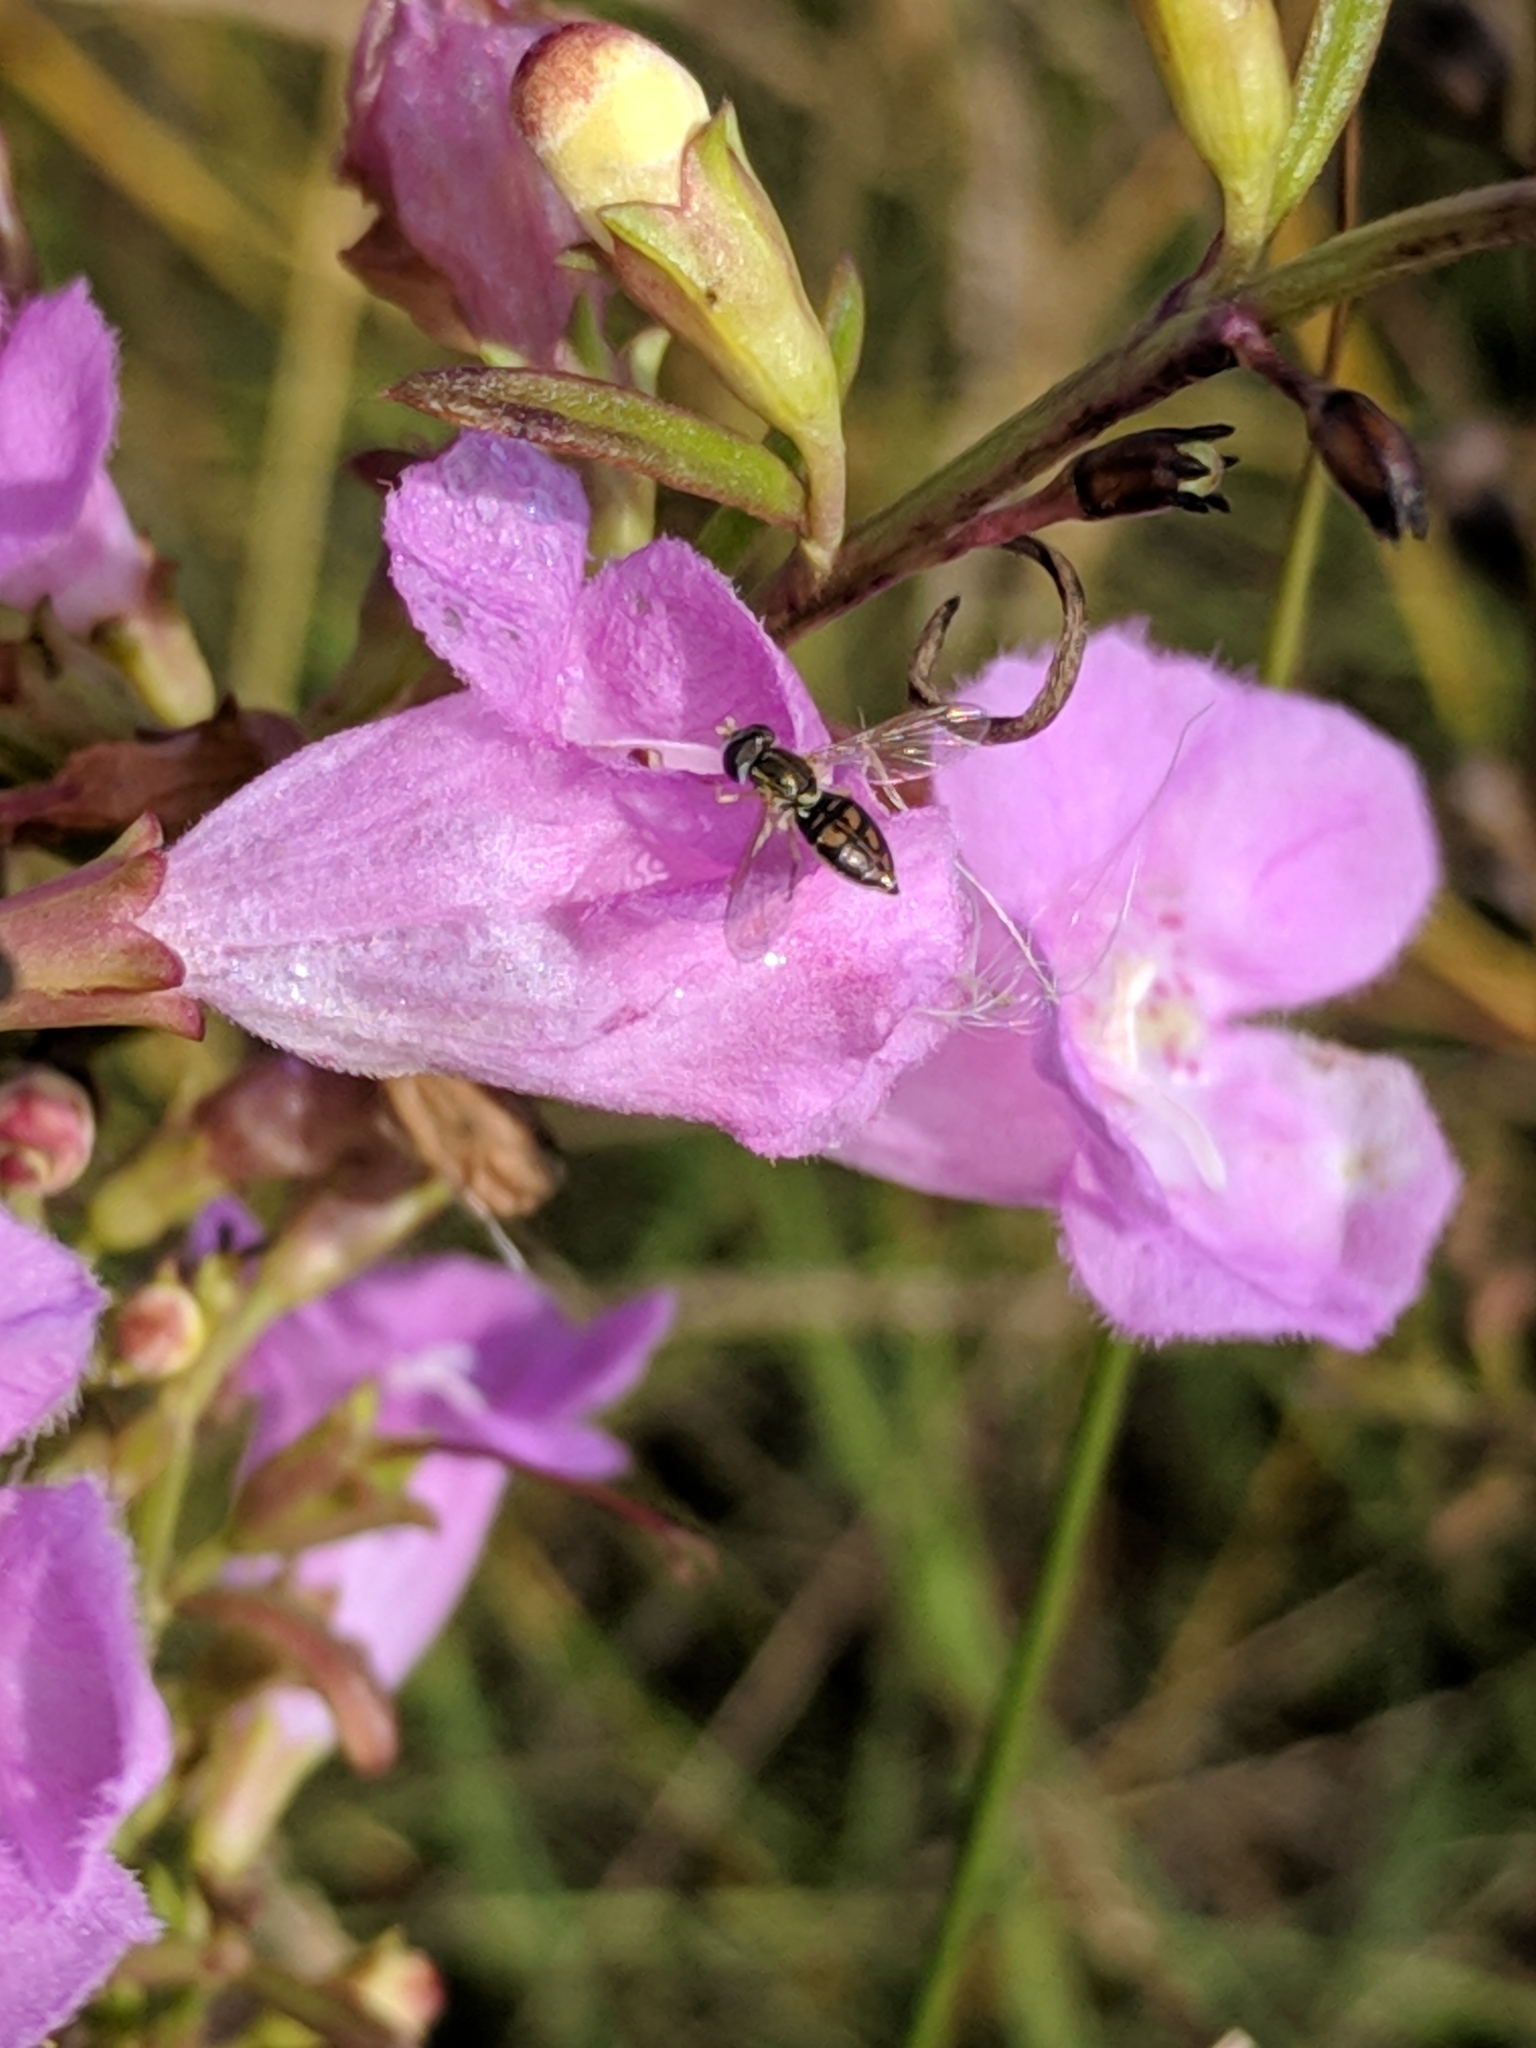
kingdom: Animalia
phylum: Arthropoda
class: Insecta
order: Diptera
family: Syrphidae
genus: Toxomerus
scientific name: Toxomerus marginatus
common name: Syrphid fly
